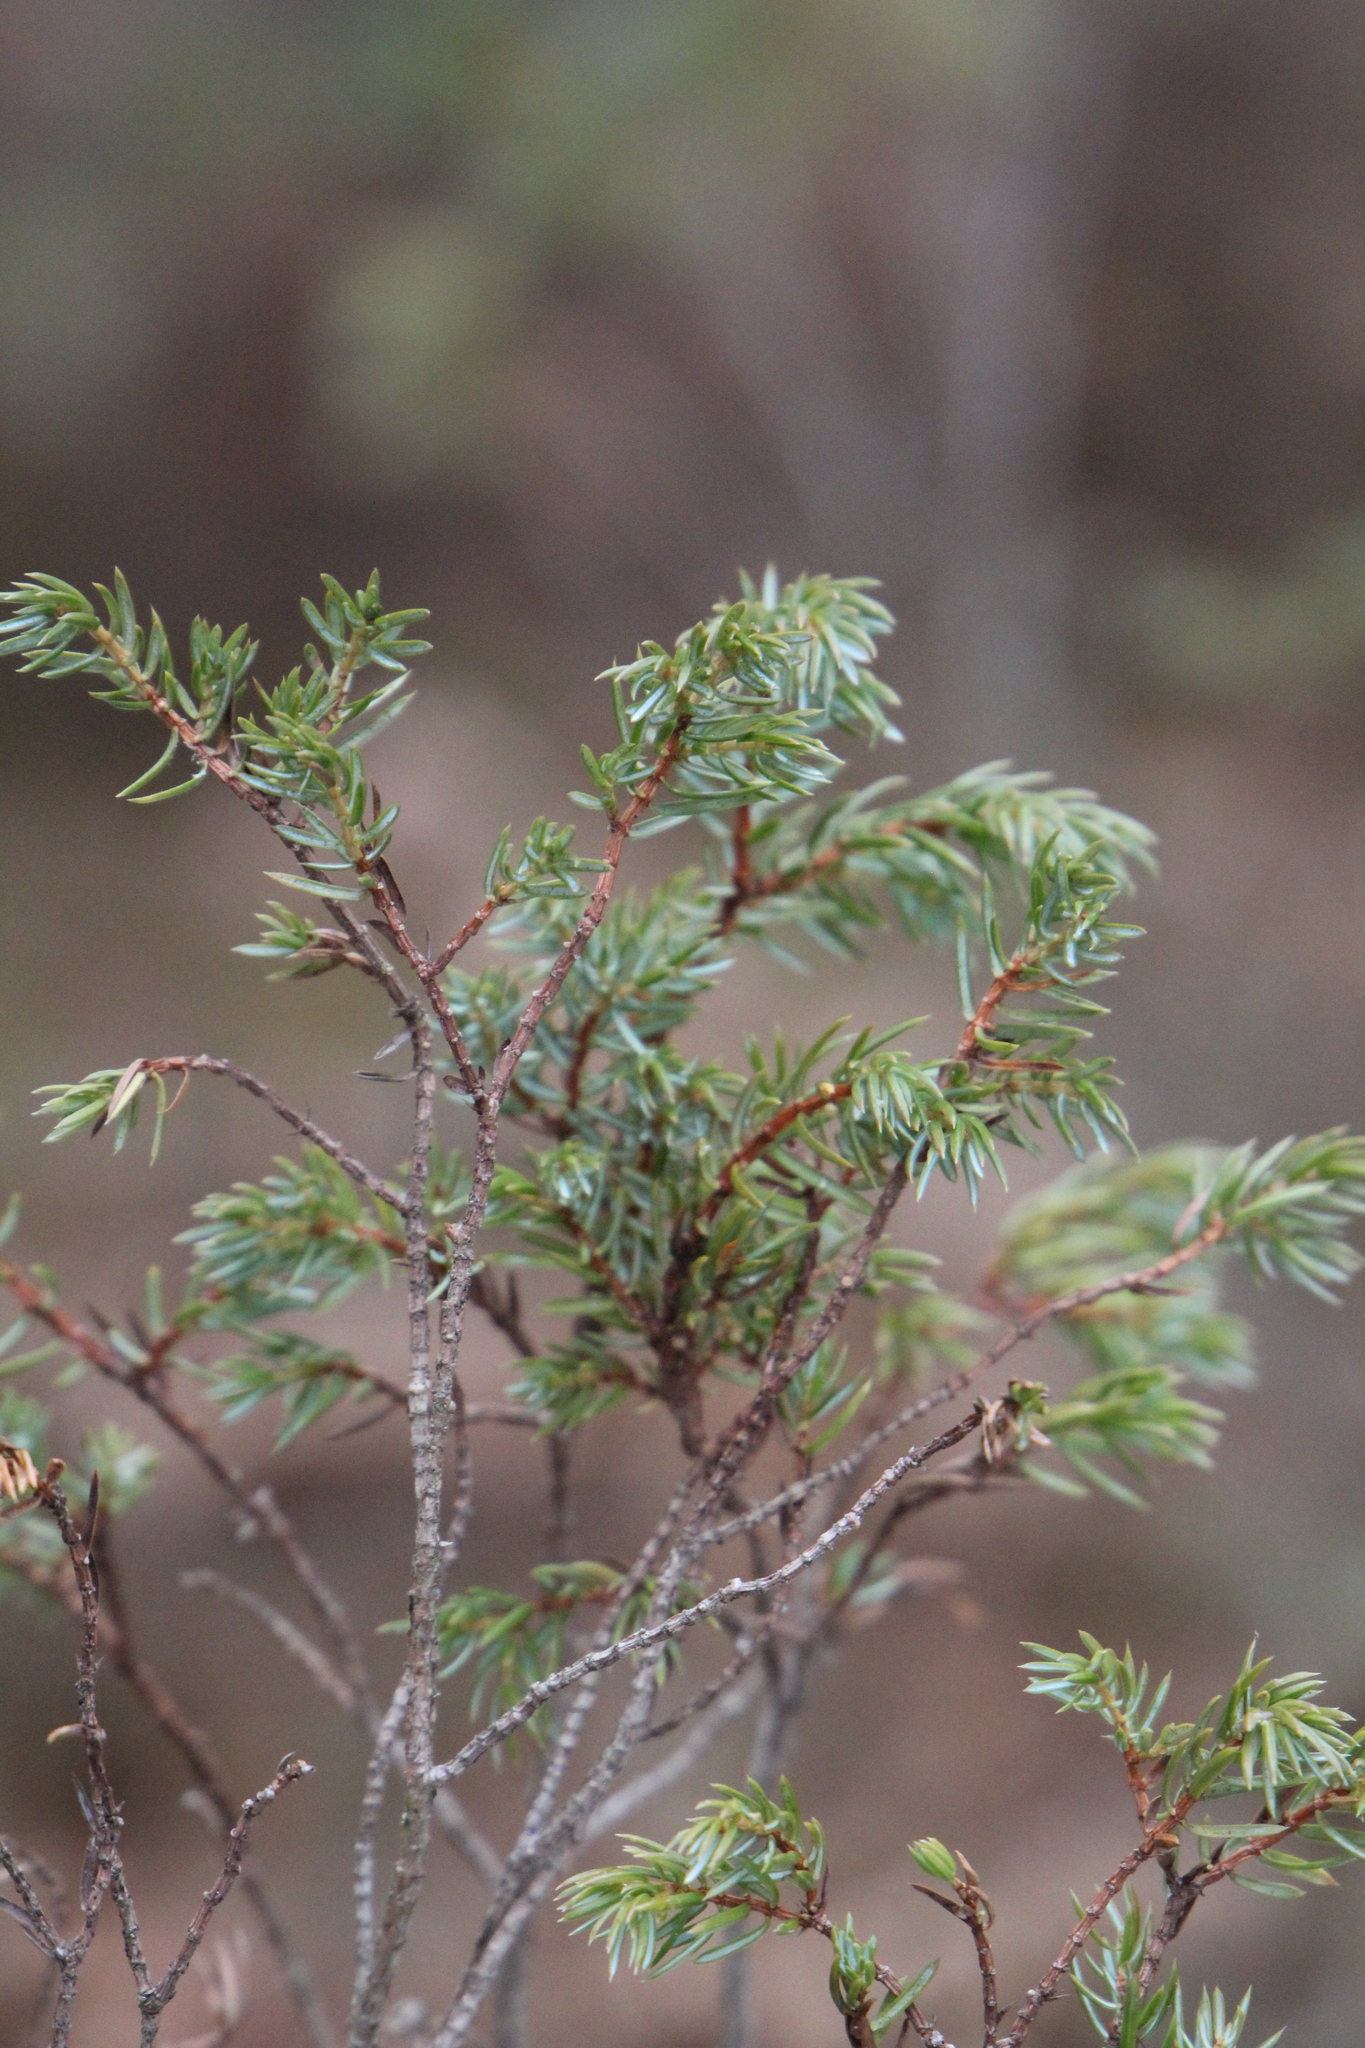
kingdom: Plantae
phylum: Tracheophyta
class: Pinopsida
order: Pinales
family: Cupressaceae
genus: Juniperus
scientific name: Juniperus communis
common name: Common juniper
